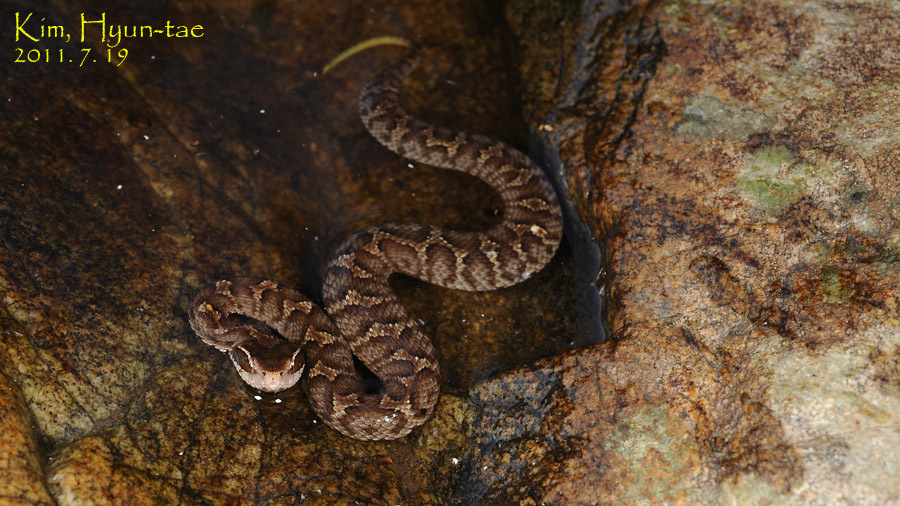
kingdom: Animalia
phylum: Chordata
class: Squamata
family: Viperidae
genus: Gloydius
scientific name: Gloydius ussuriensis
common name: Ussuri mamushi
